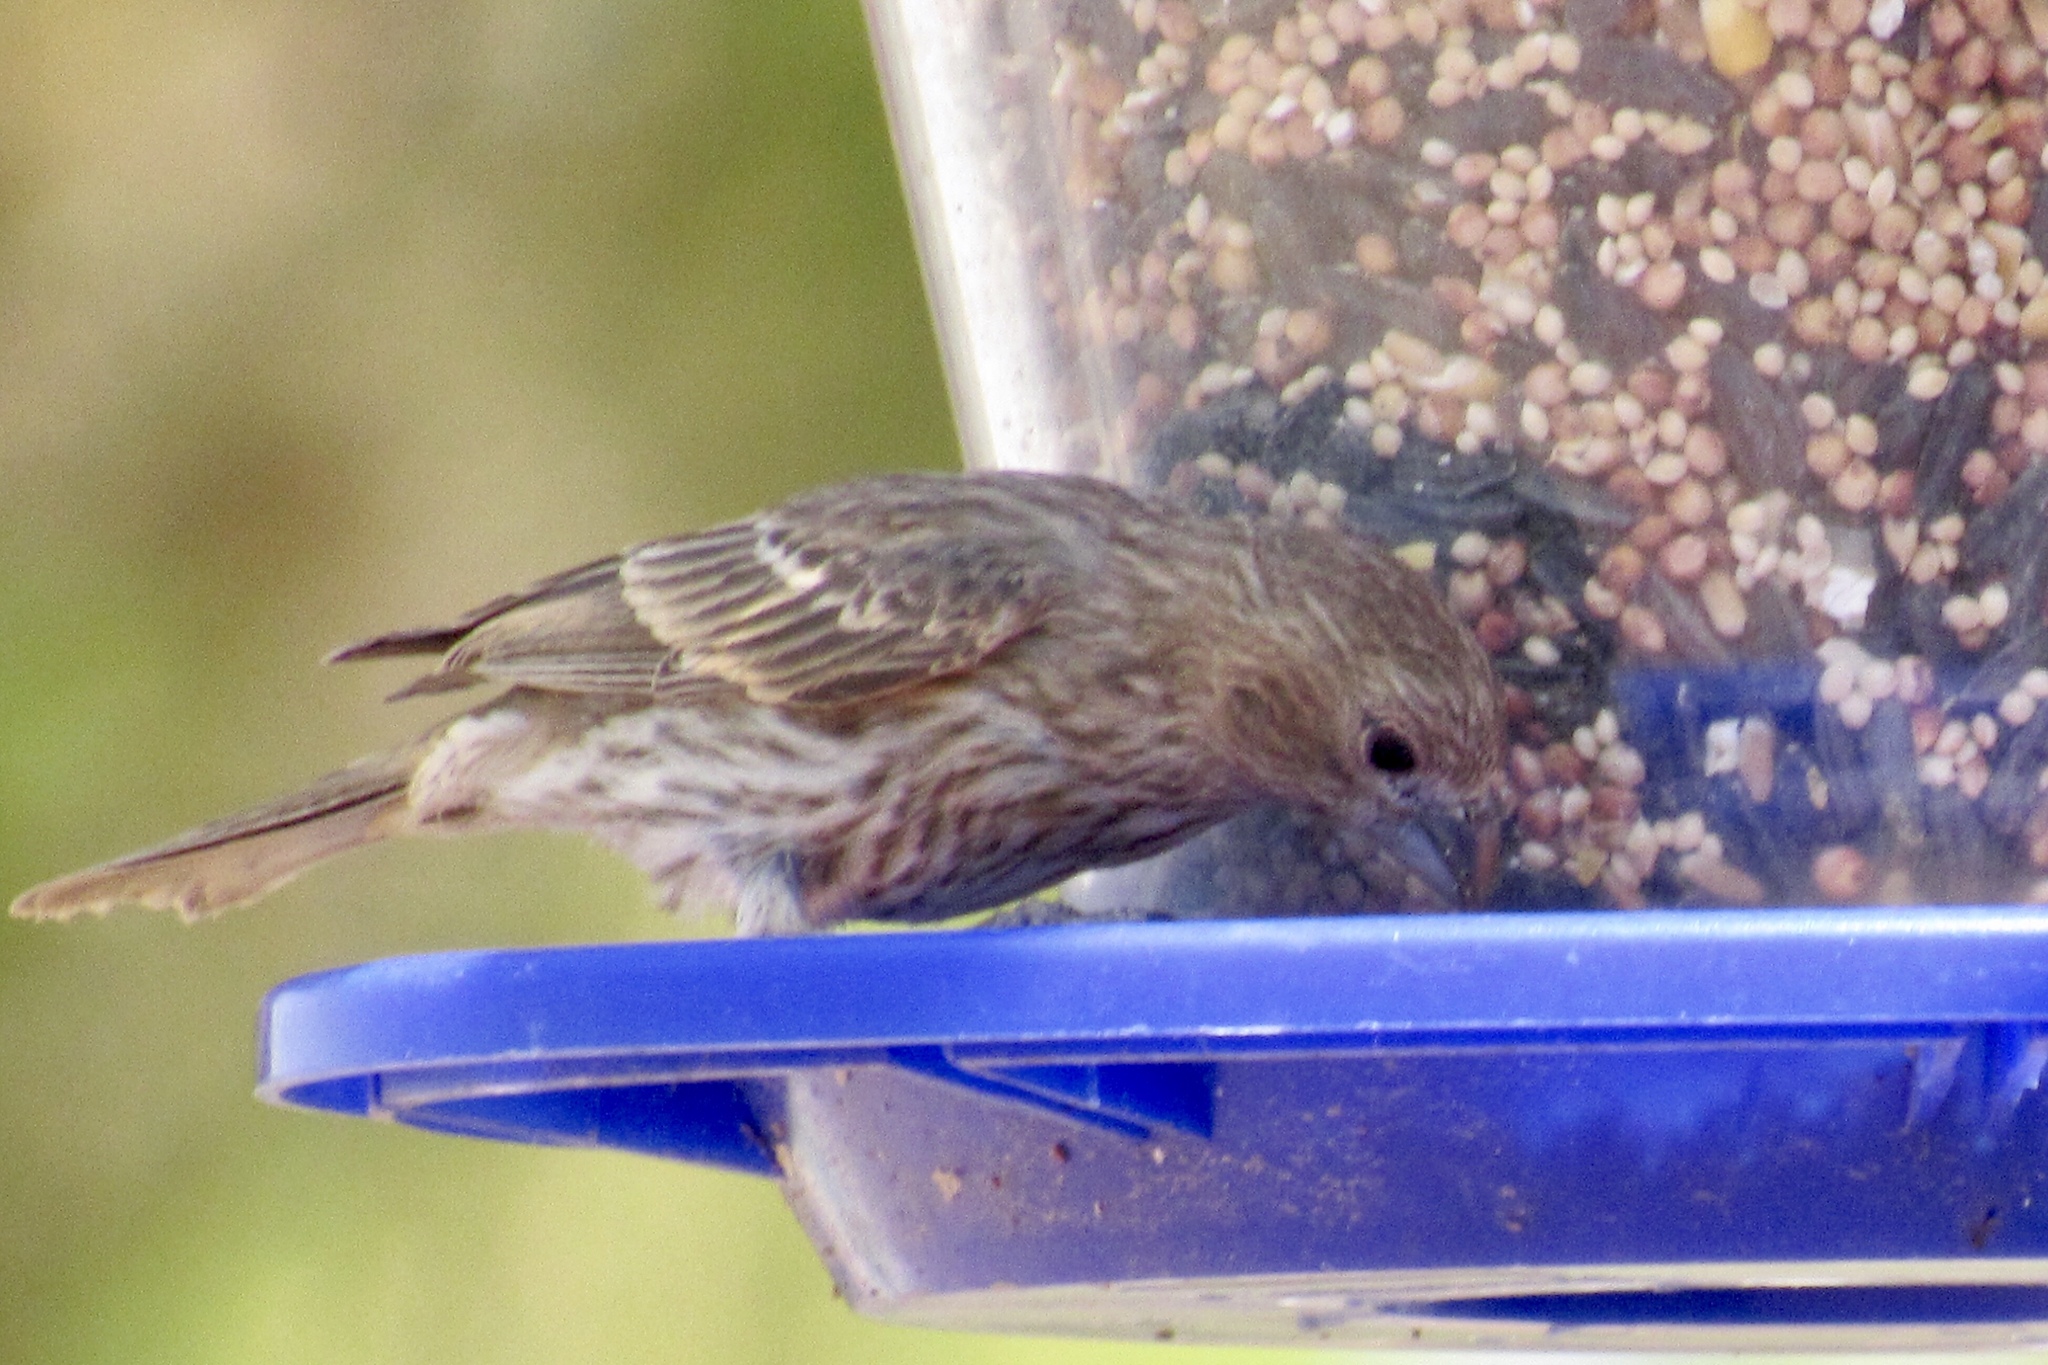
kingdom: Animalia
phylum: Chordata
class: Aves
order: Passeriformes
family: Fringillidae
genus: Haemorhous
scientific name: Haemorhous mexicanus
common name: House finch
